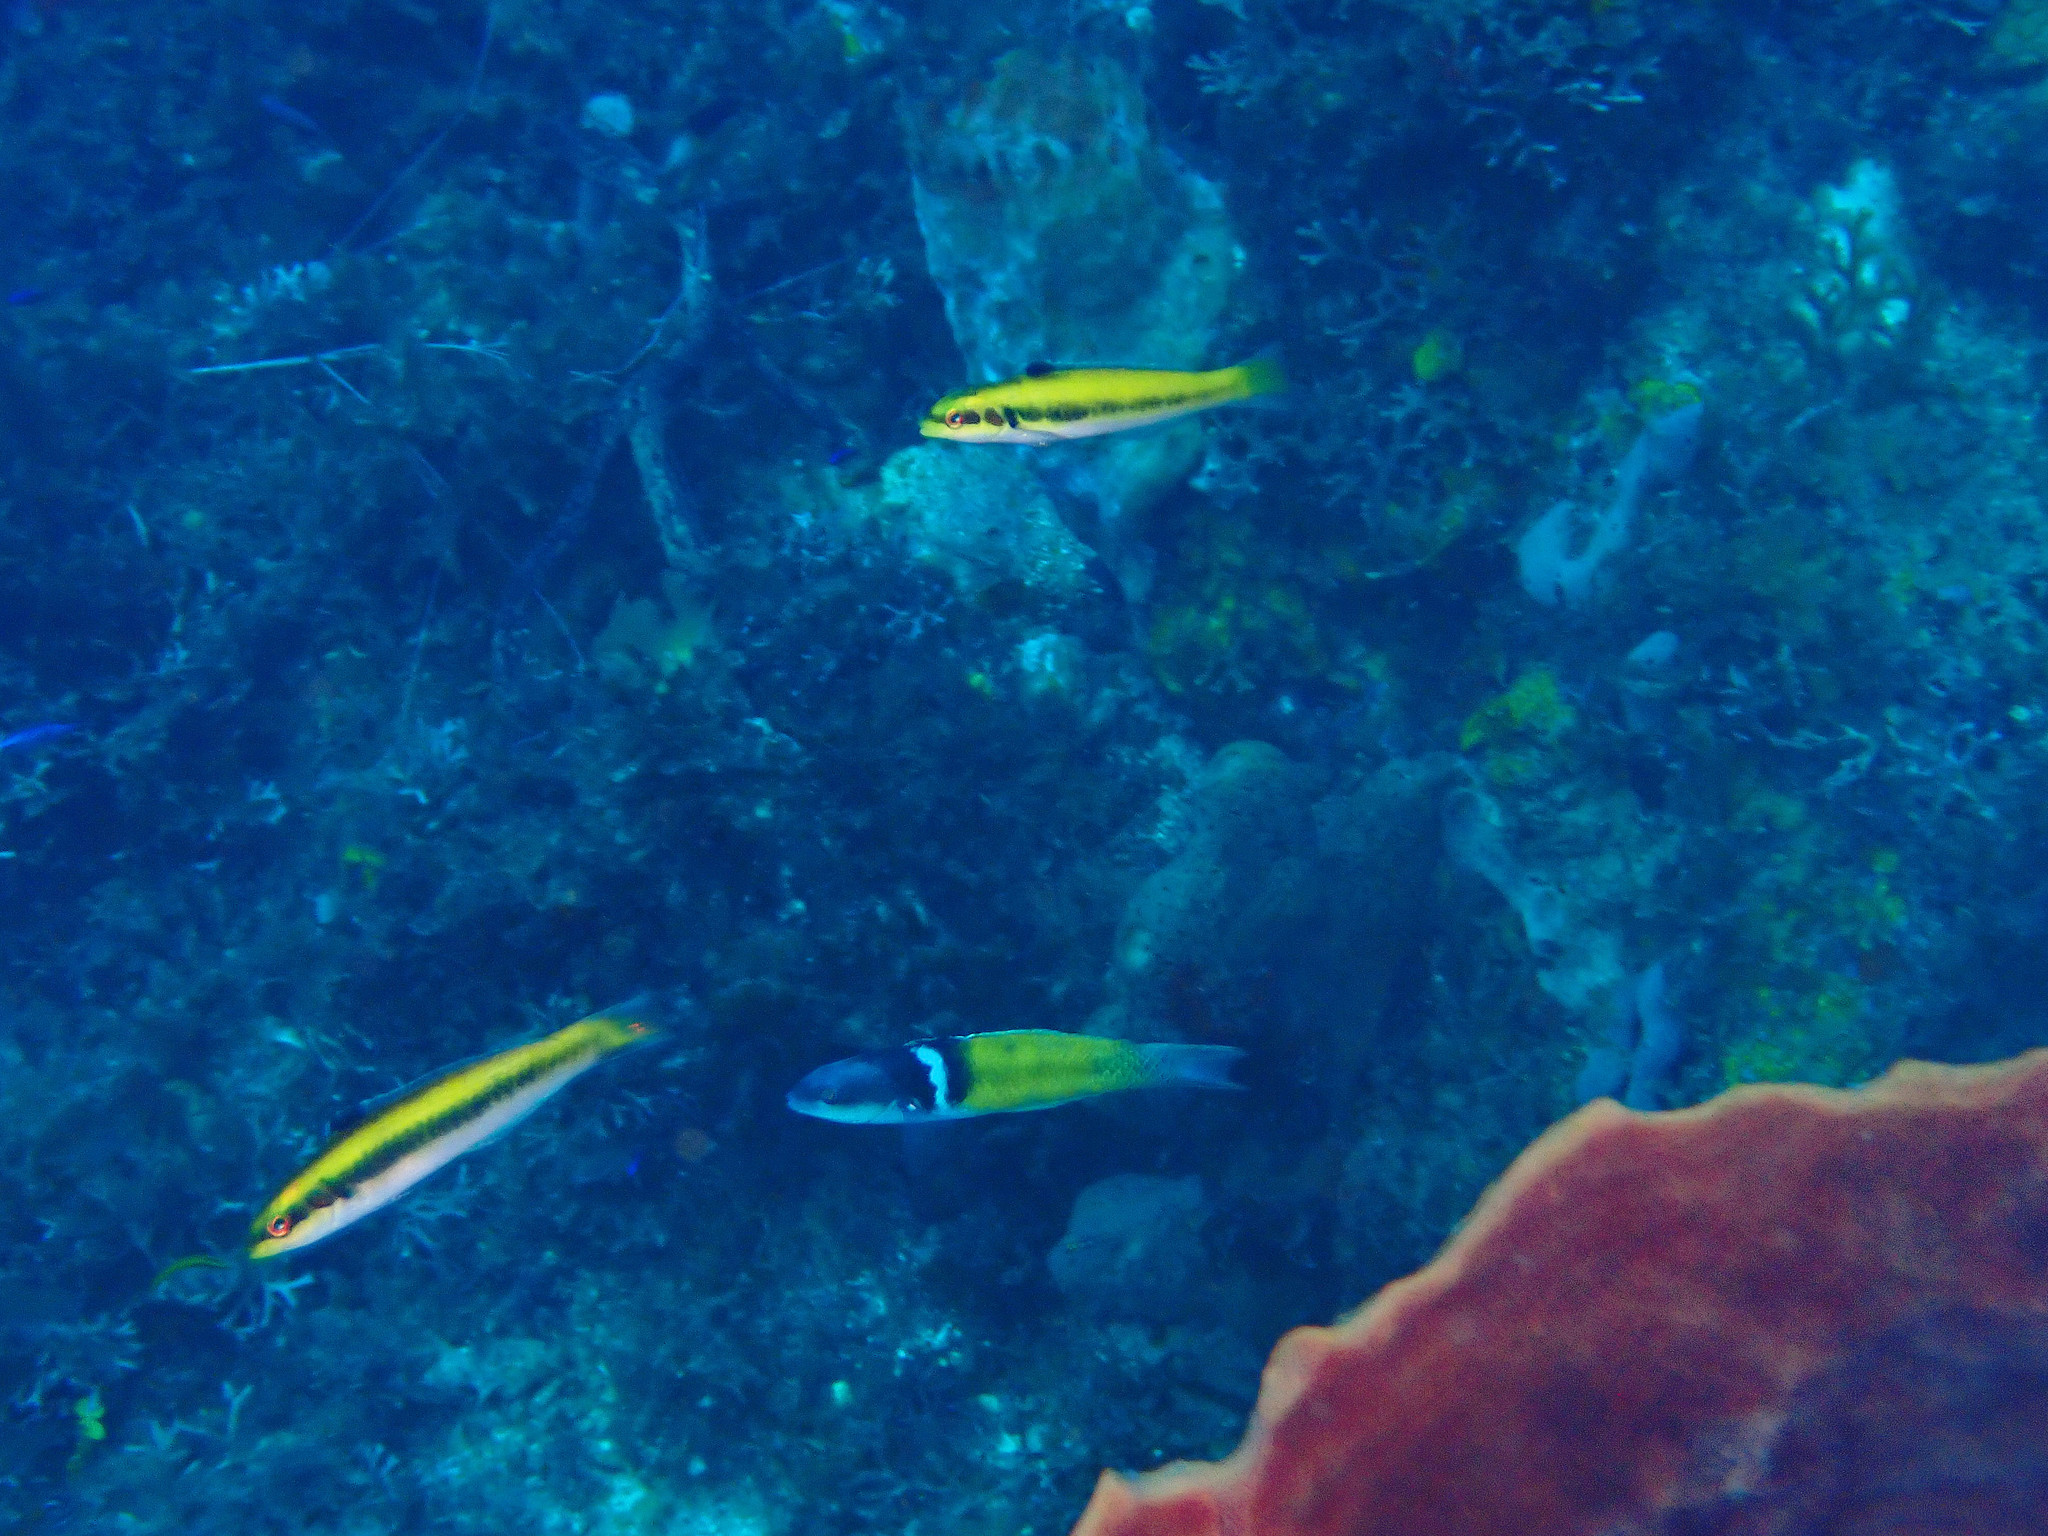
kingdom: Animalia
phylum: Chordata
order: Perciformes
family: Labridae
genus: Thalassoma
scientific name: Thalassoma bifasciatum
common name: Bluehead wrasse
